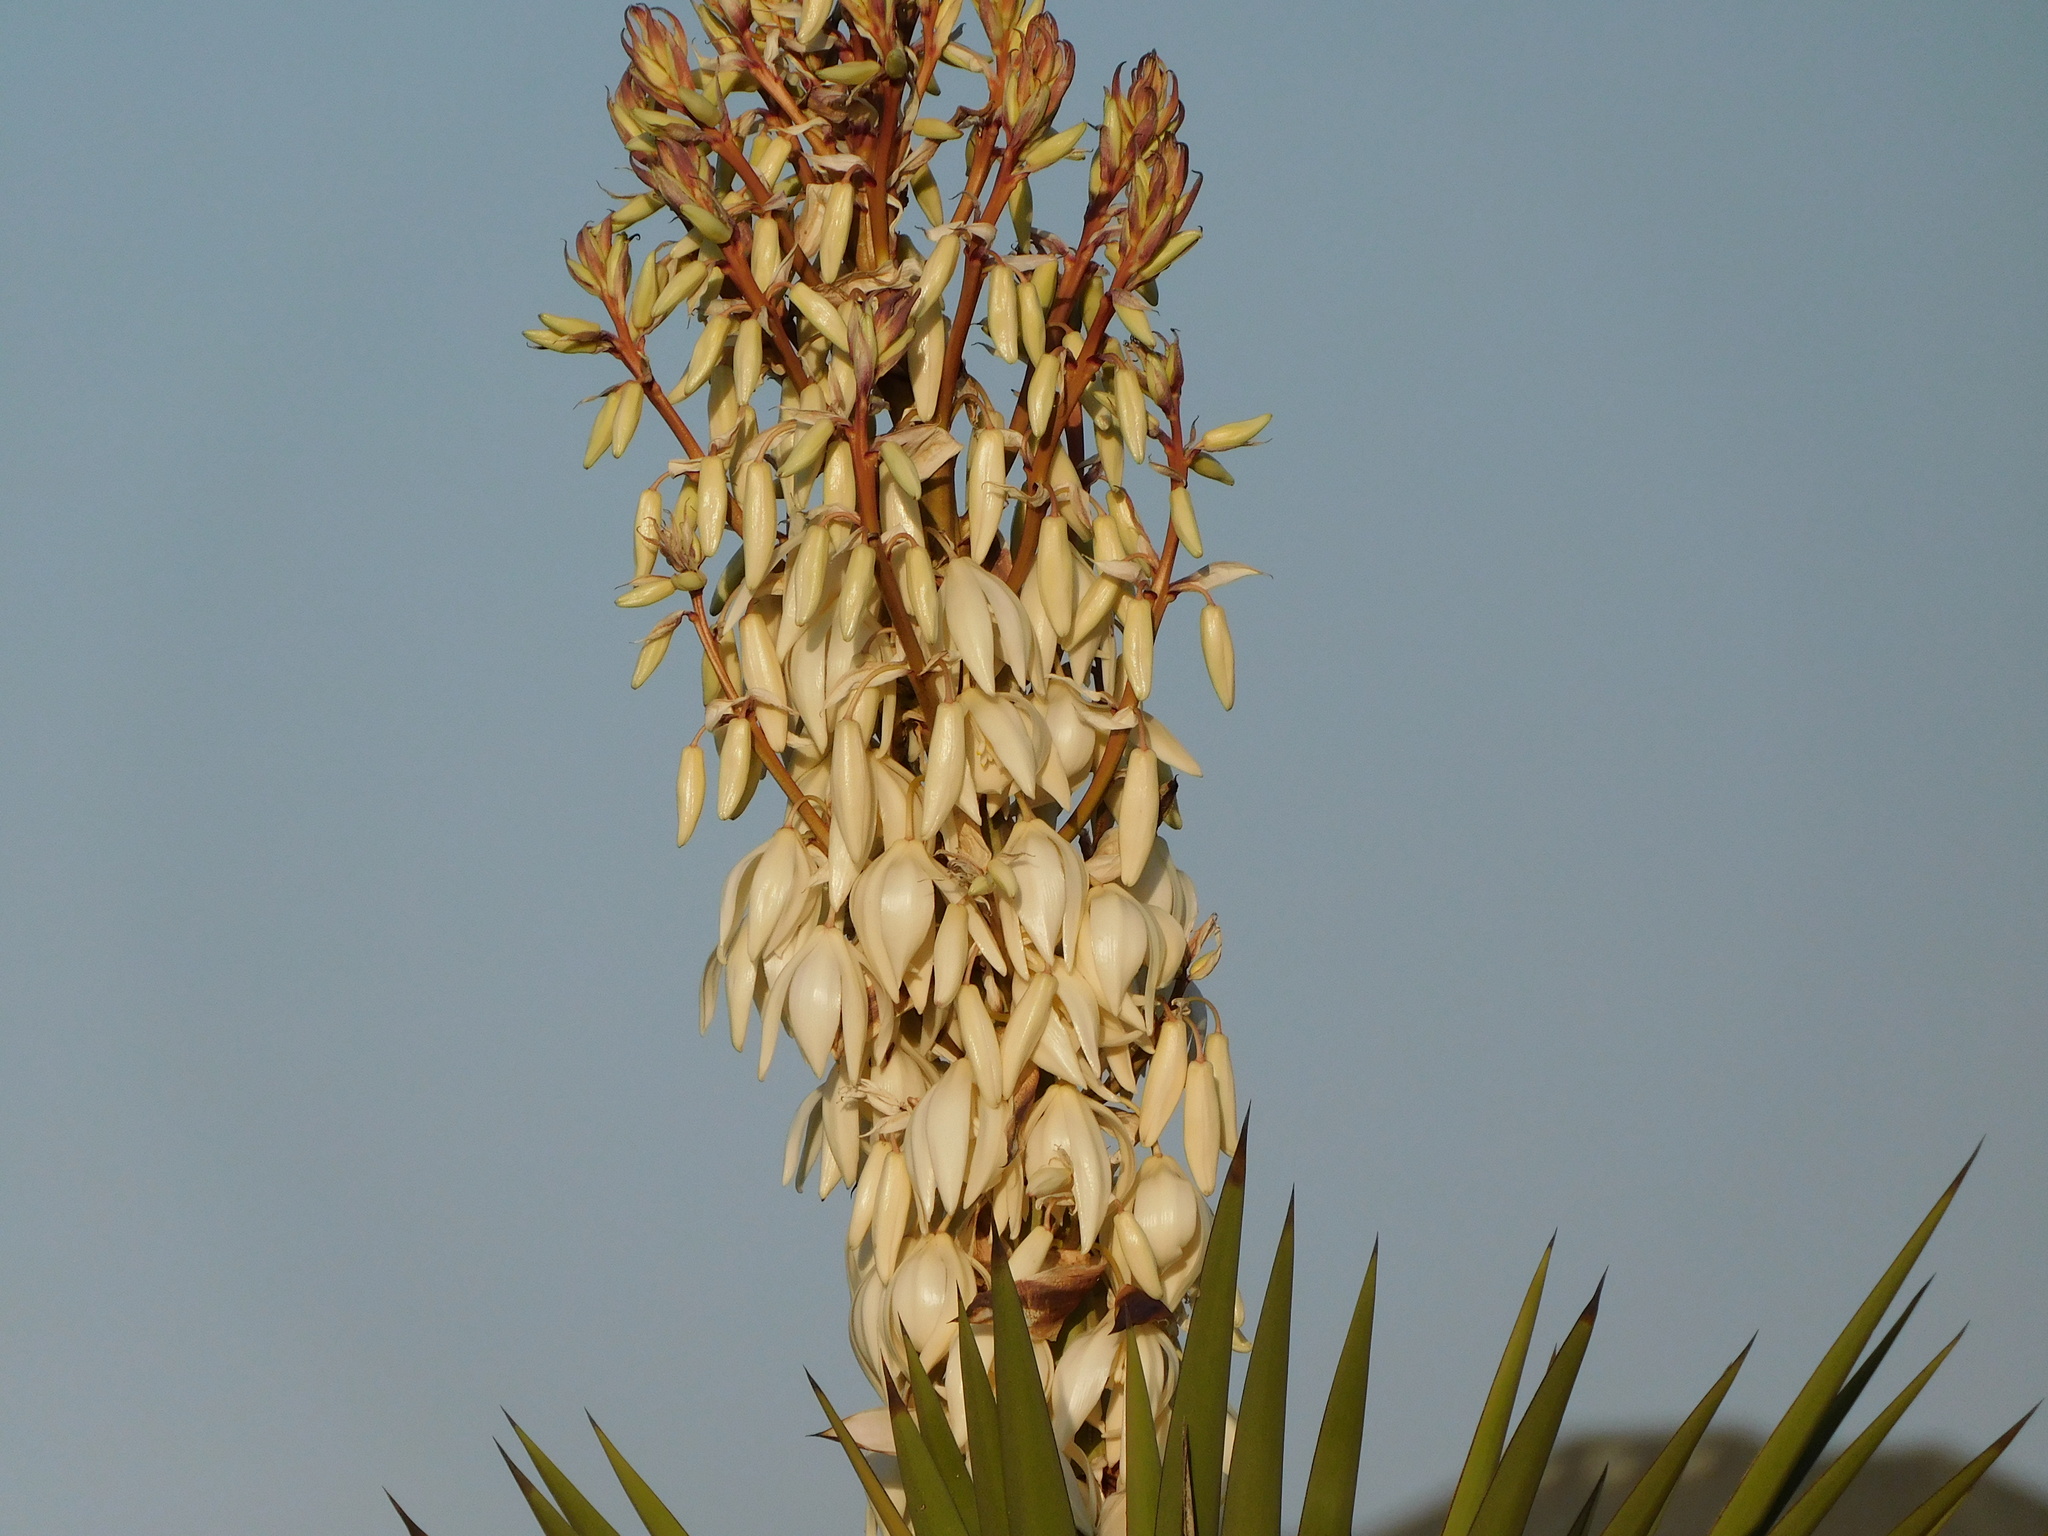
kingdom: Plantae
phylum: Tracheophyta
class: Liliopsida
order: Asparagales
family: Asparagaceae
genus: Yucca
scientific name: Yucca treculiana
